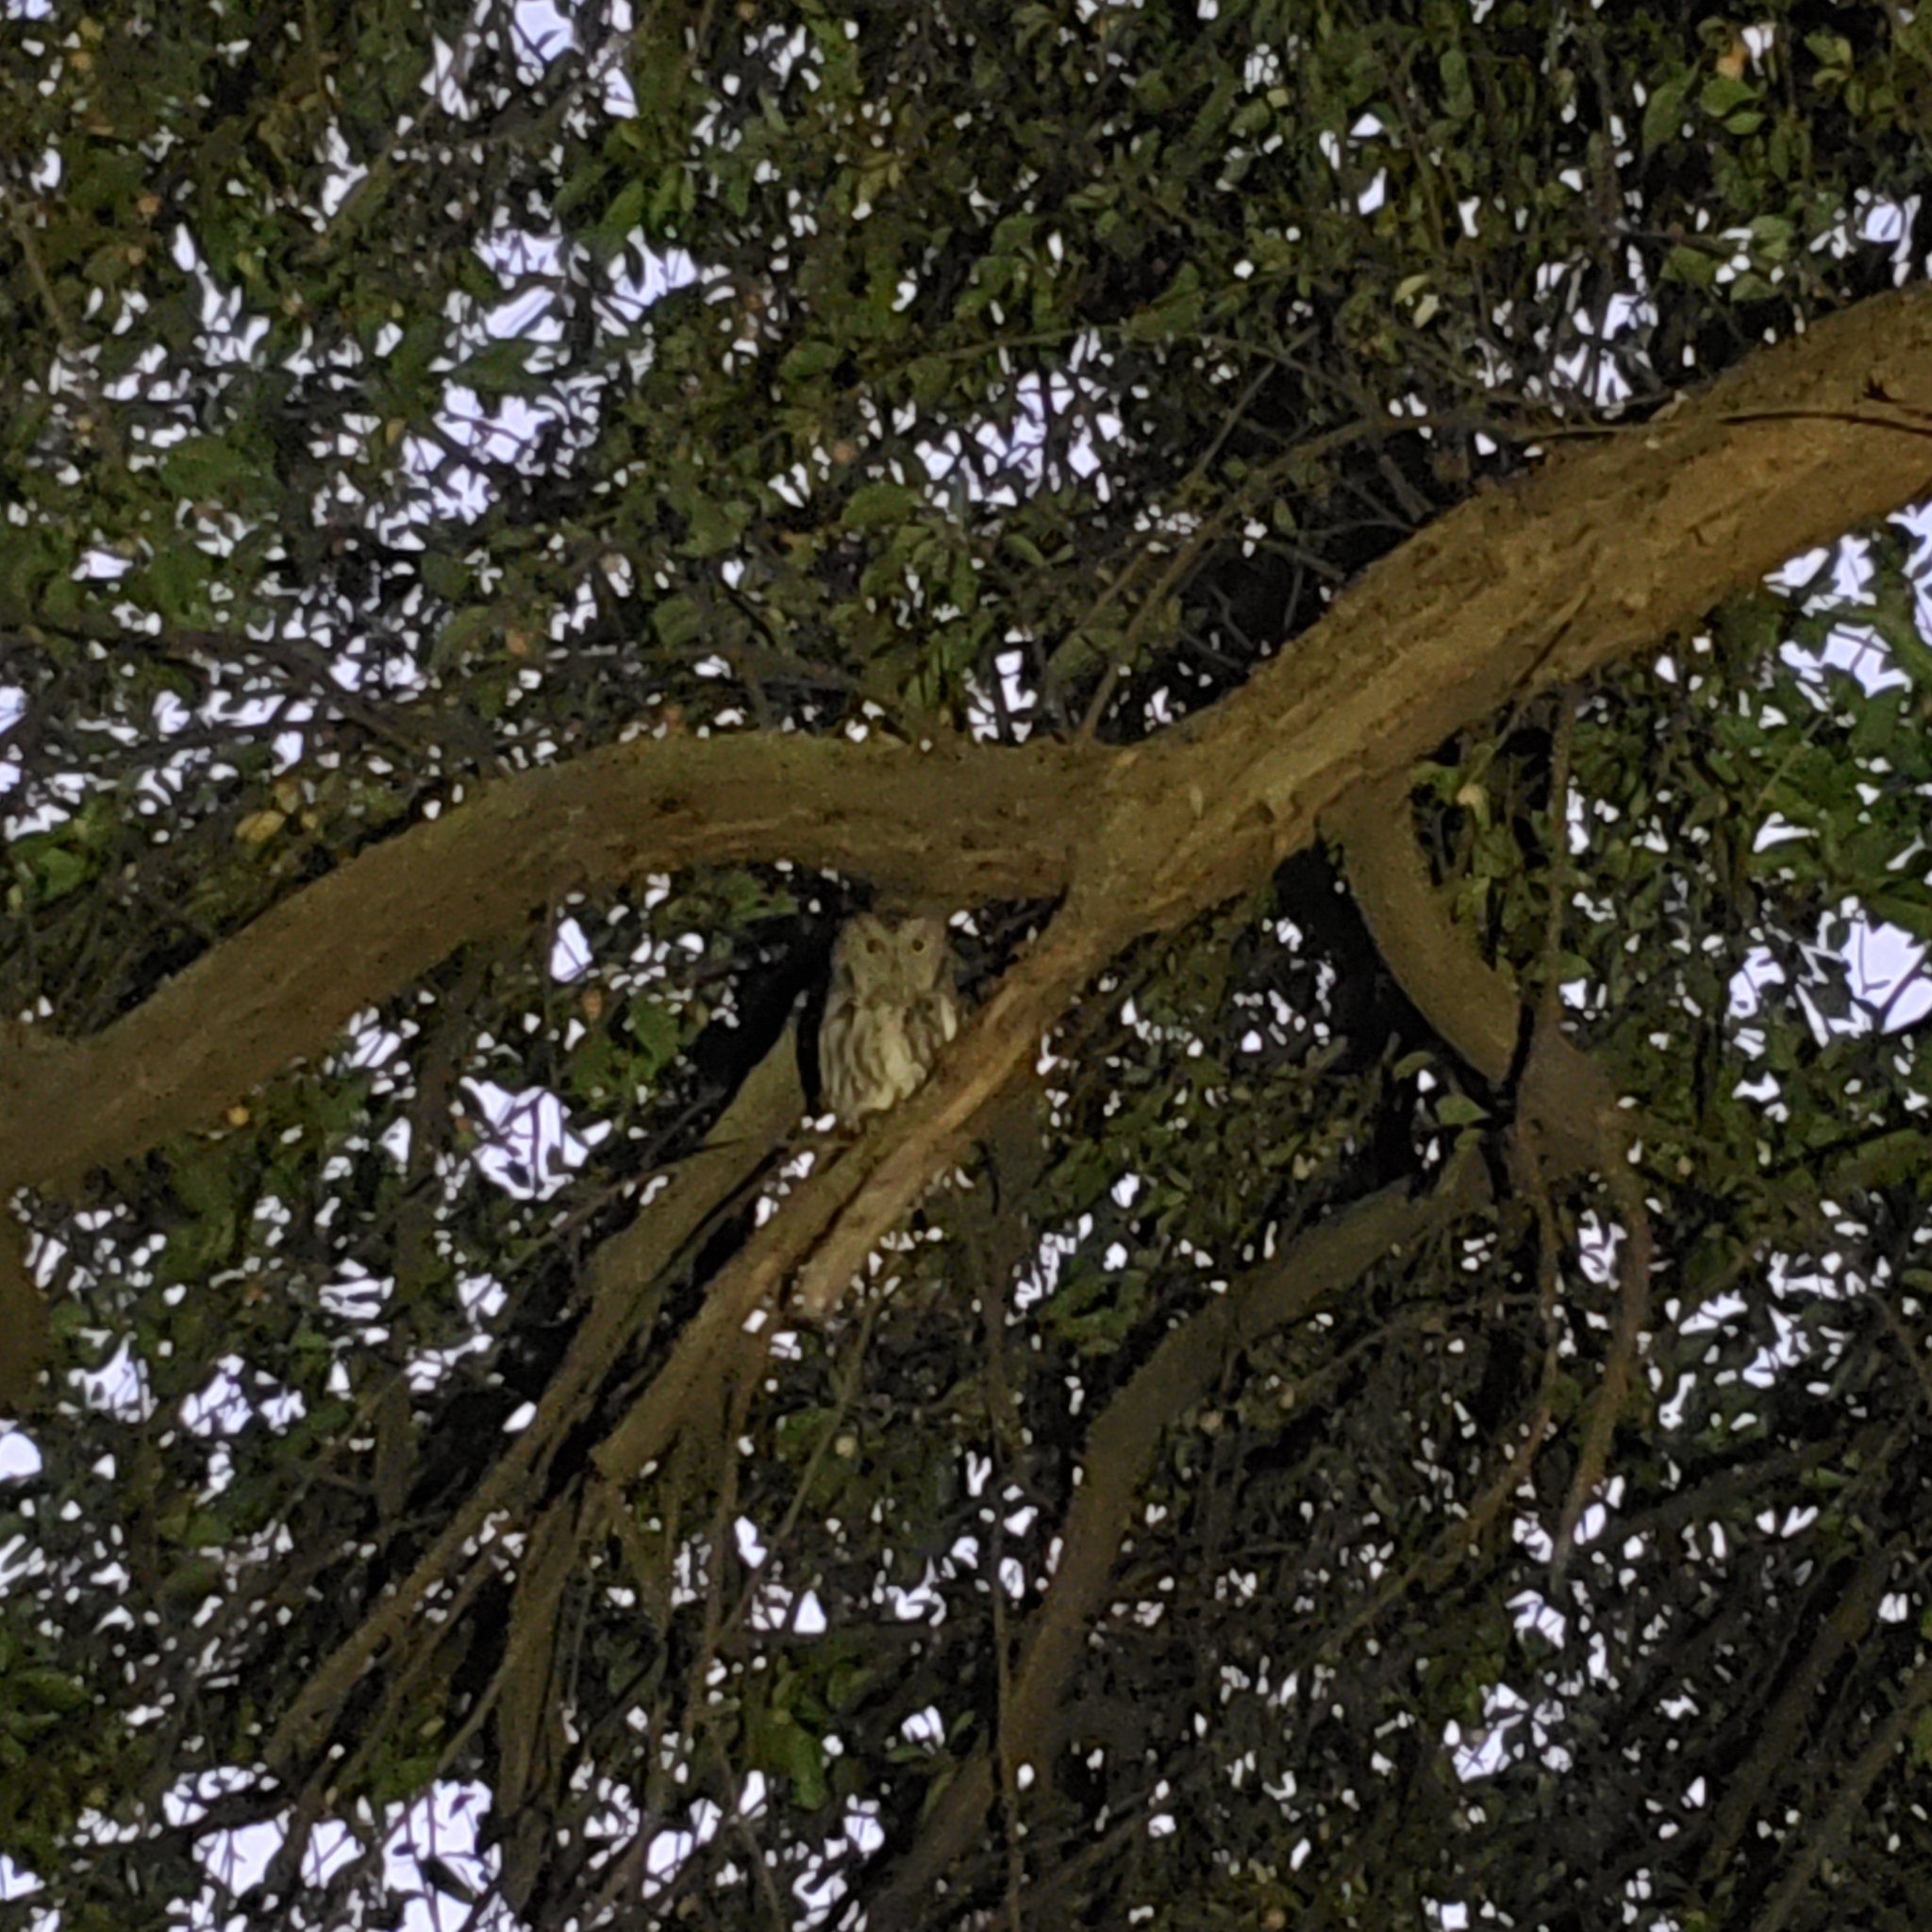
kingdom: Animalia
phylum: Chordata
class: Aves
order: Strigiformes
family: Strigidae
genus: Megascops
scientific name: Megascops kennicottii
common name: Western screech-owl
